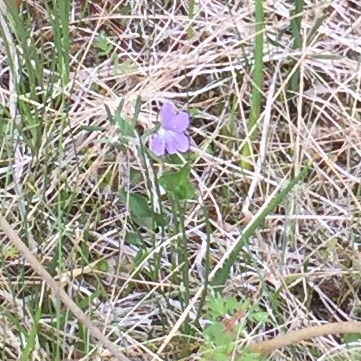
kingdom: Plantae
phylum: Tracheophyta
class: Magnoliopsida
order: Malpighiales
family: Violaceae
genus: Viola
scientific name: Viola nephrophylla
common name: Blue meadow violet
